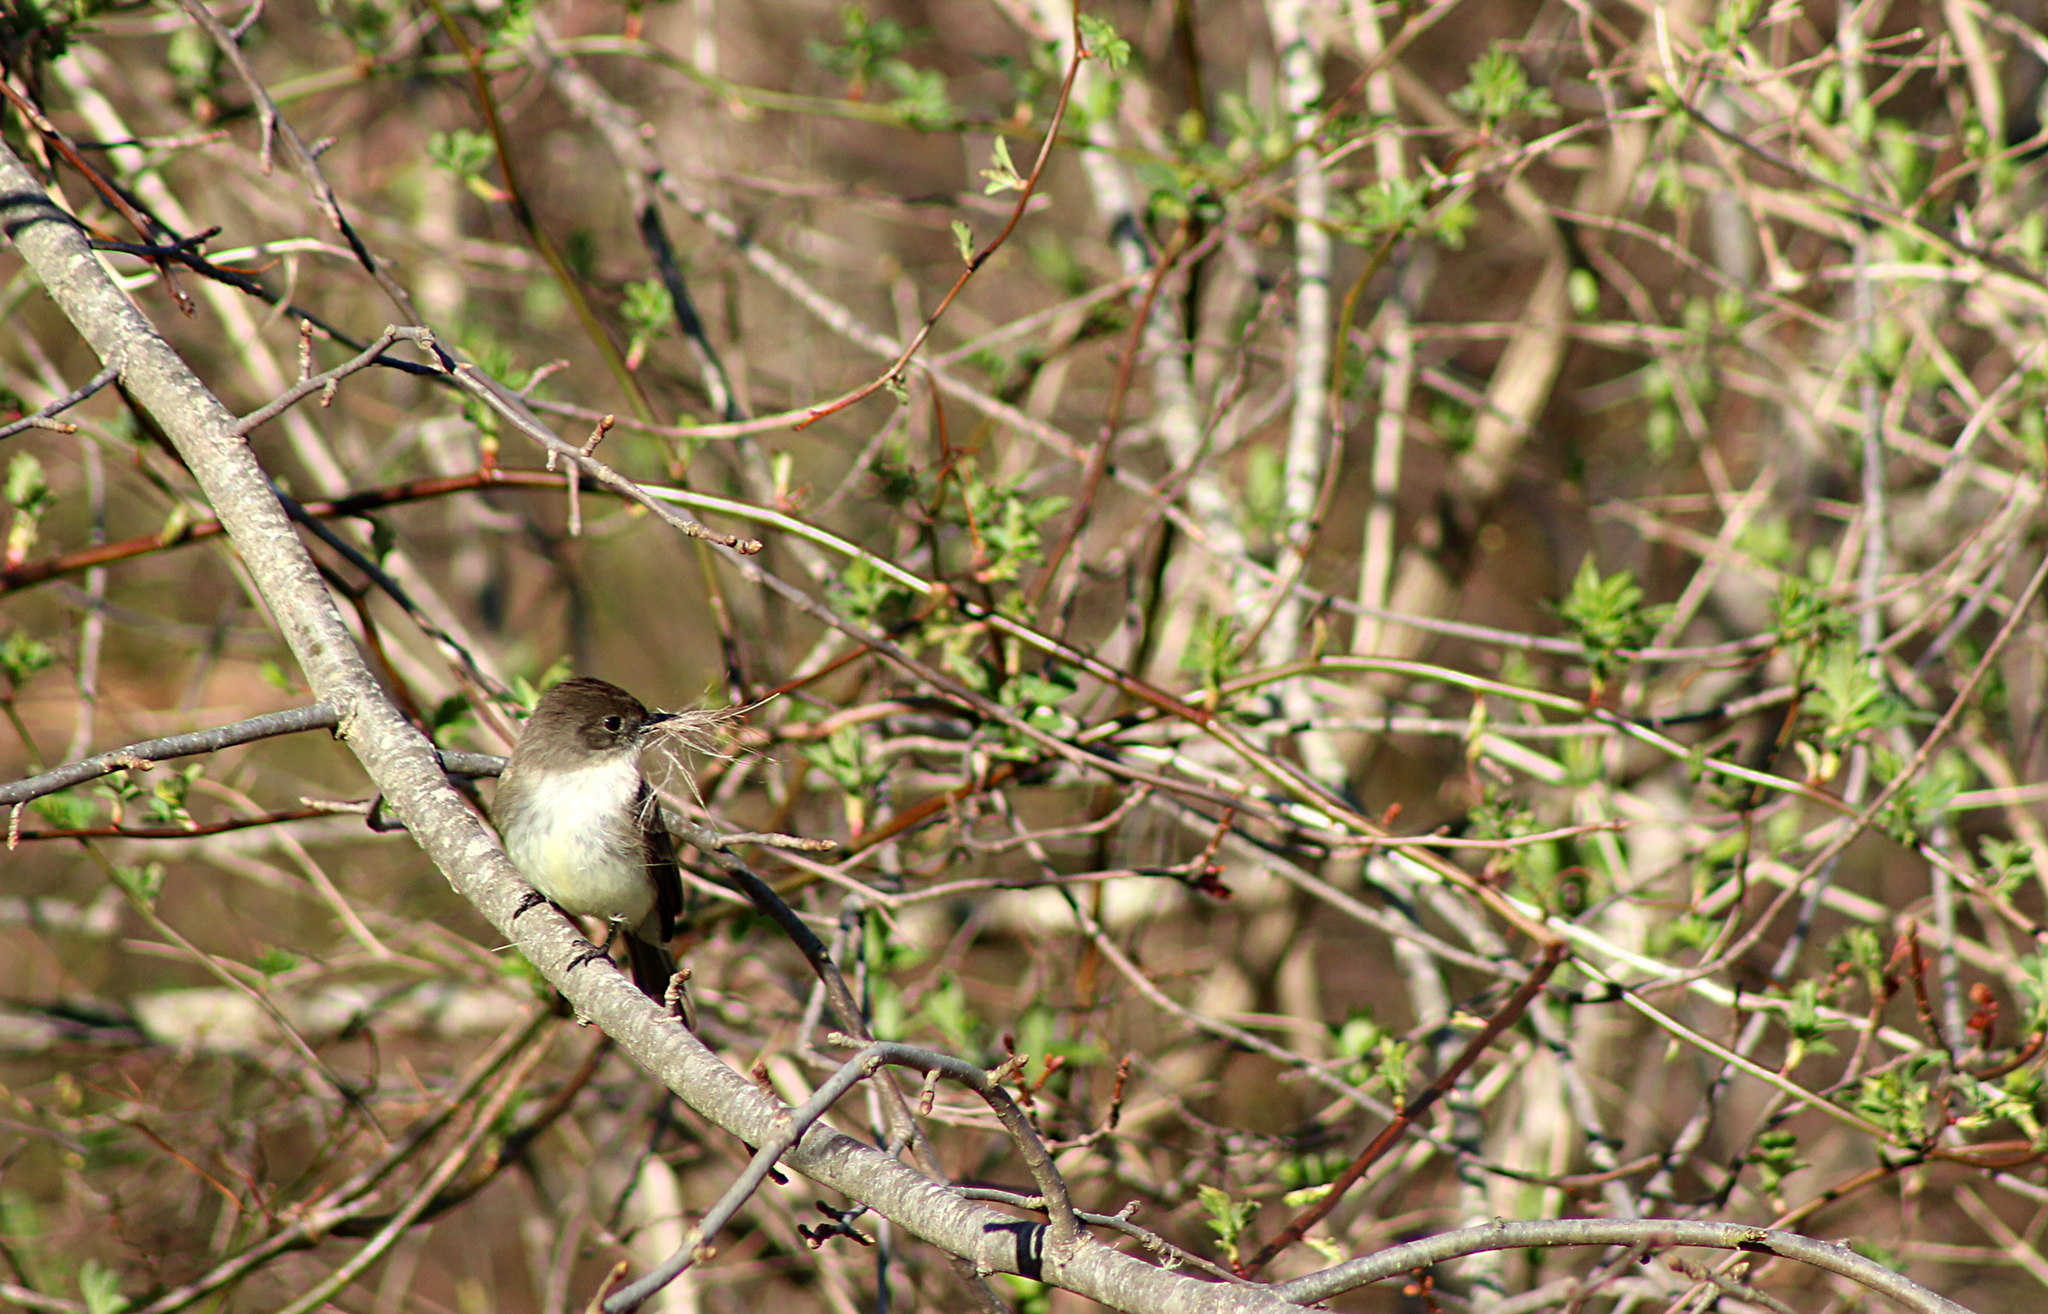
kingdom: Animalia
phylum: Chordata
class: Aves
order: Passeriformes
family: Tyrannidae
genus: Sayornis
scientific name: Sayornis phoebe
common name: Eastern phoebe
